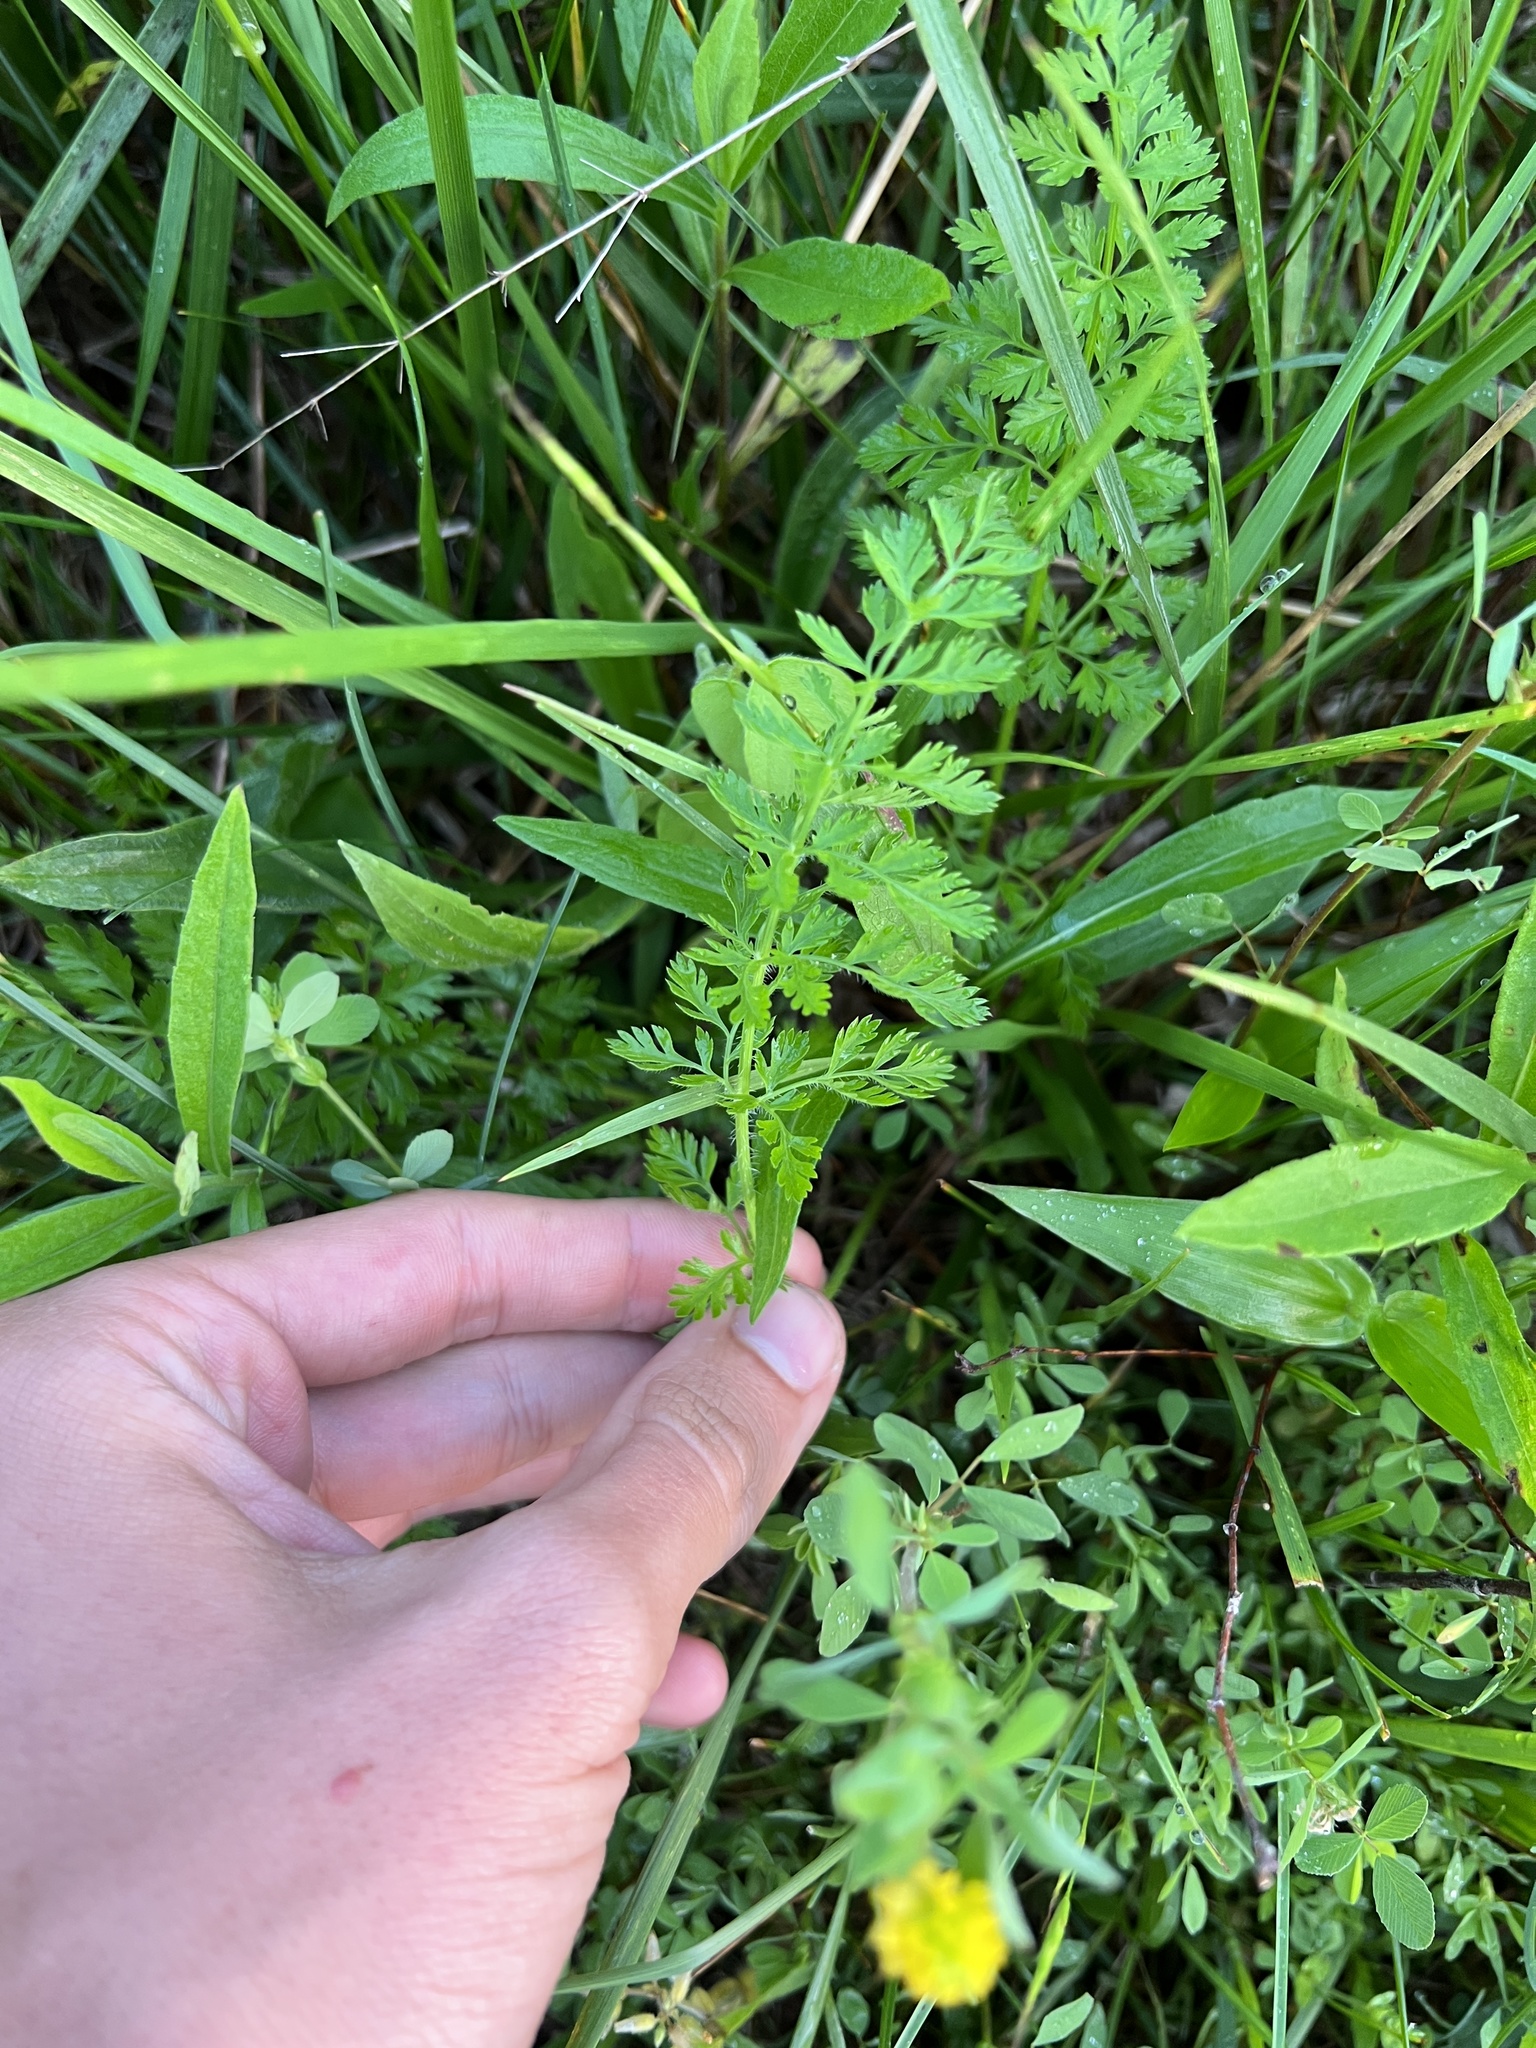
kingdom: Plantae
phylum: Tracheophyta
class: Magnoliopsida
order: Apiales
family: Apiaceae
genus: Daucus
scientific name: Daucus carota
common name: Wild carrot
